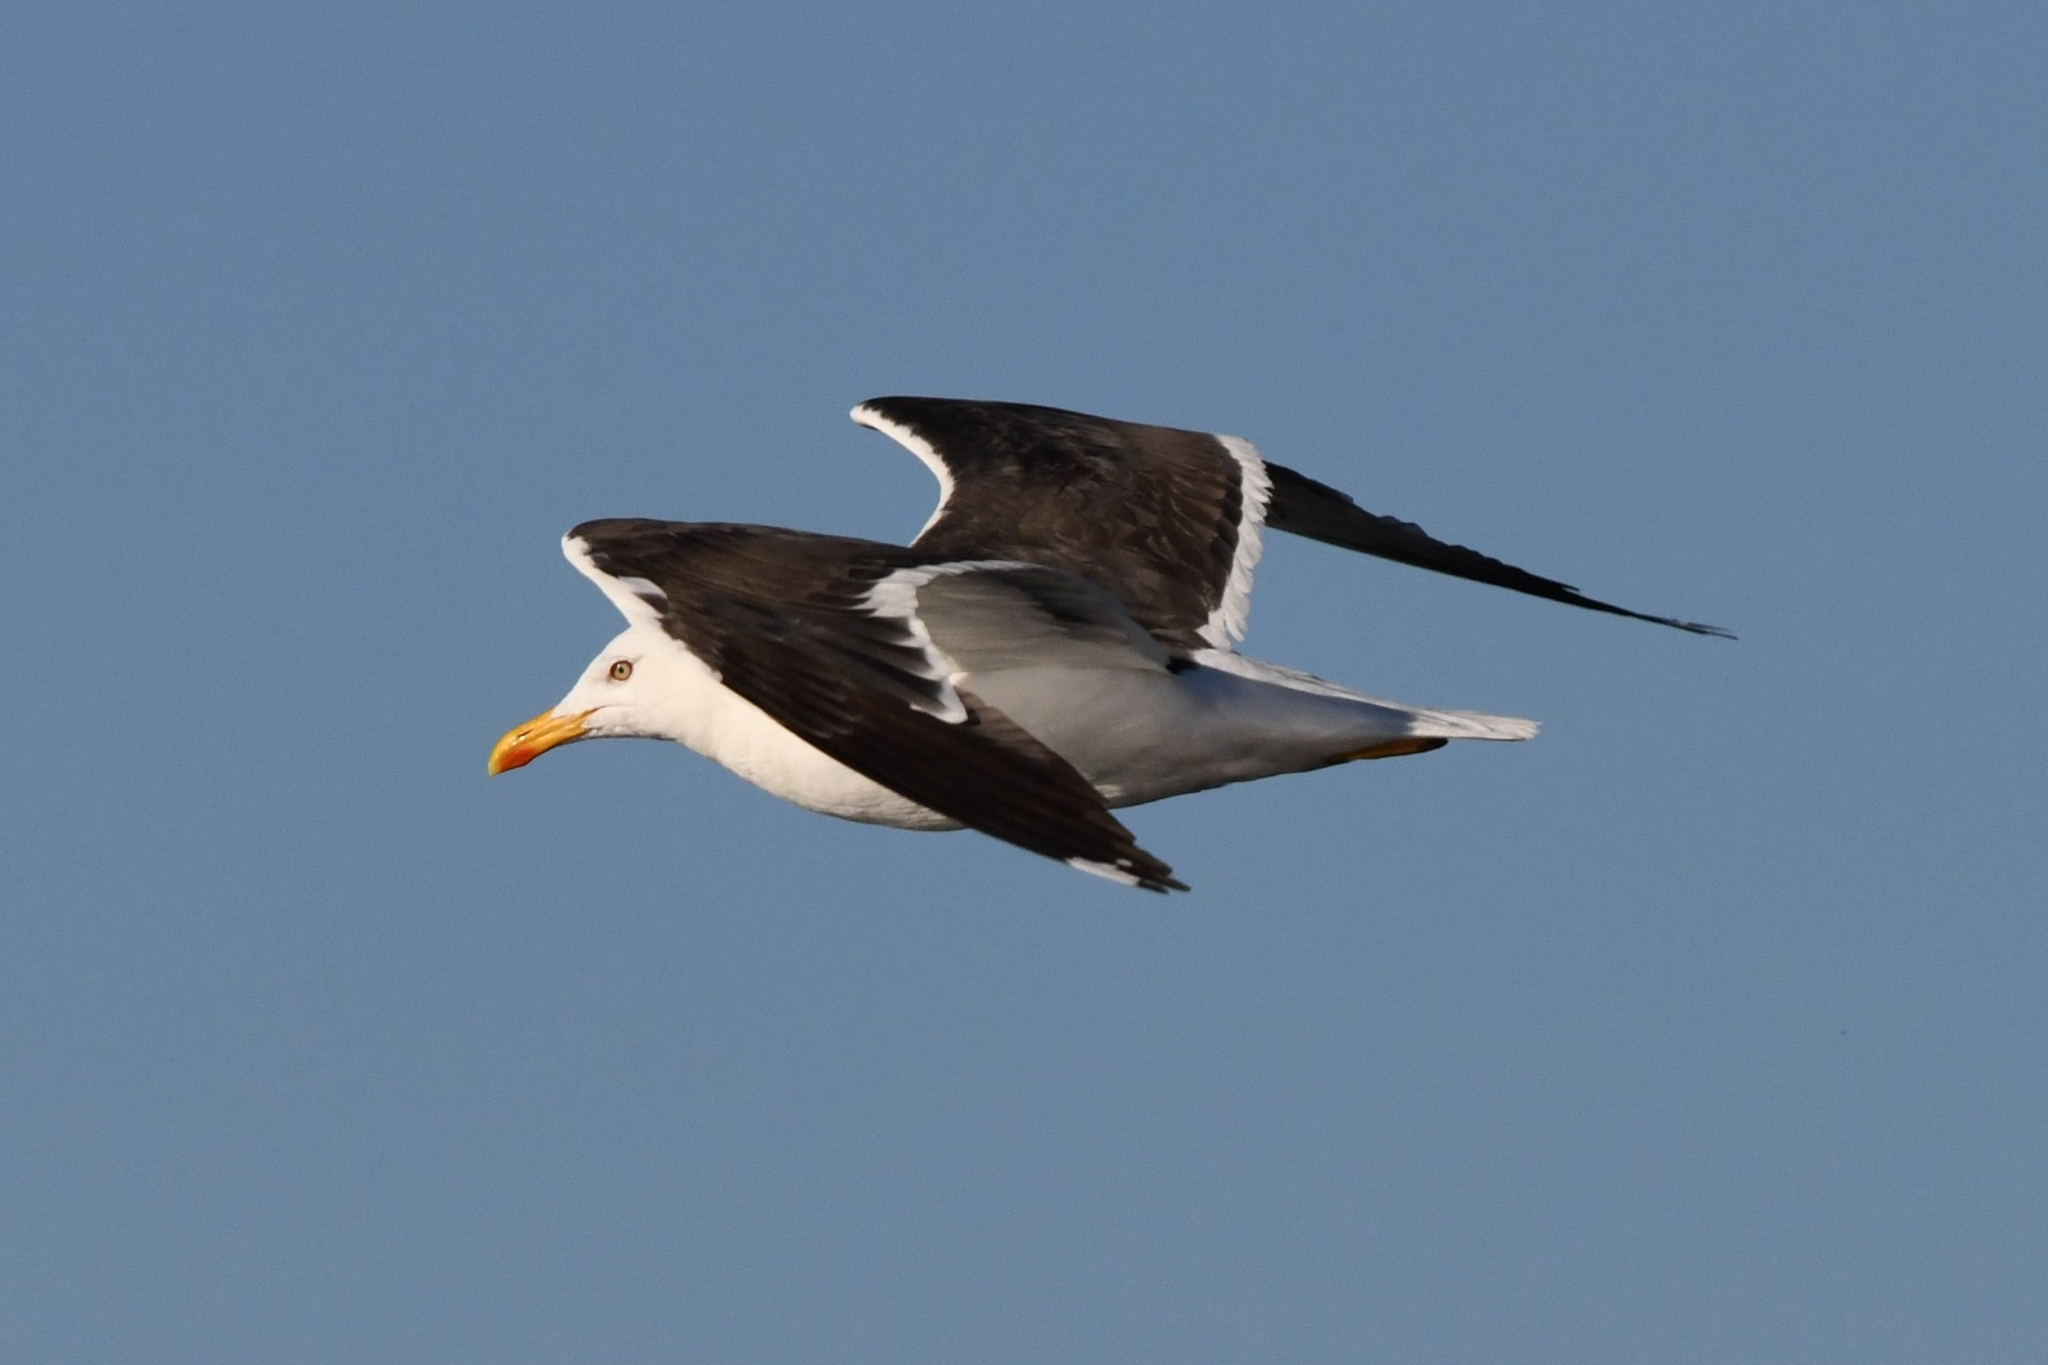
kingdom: Animalia
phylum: Chordata
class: Aves
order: Charadriiformes
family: Laridae
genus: Larus
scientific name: Larus fuscus
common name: Lesser black-backed gull
